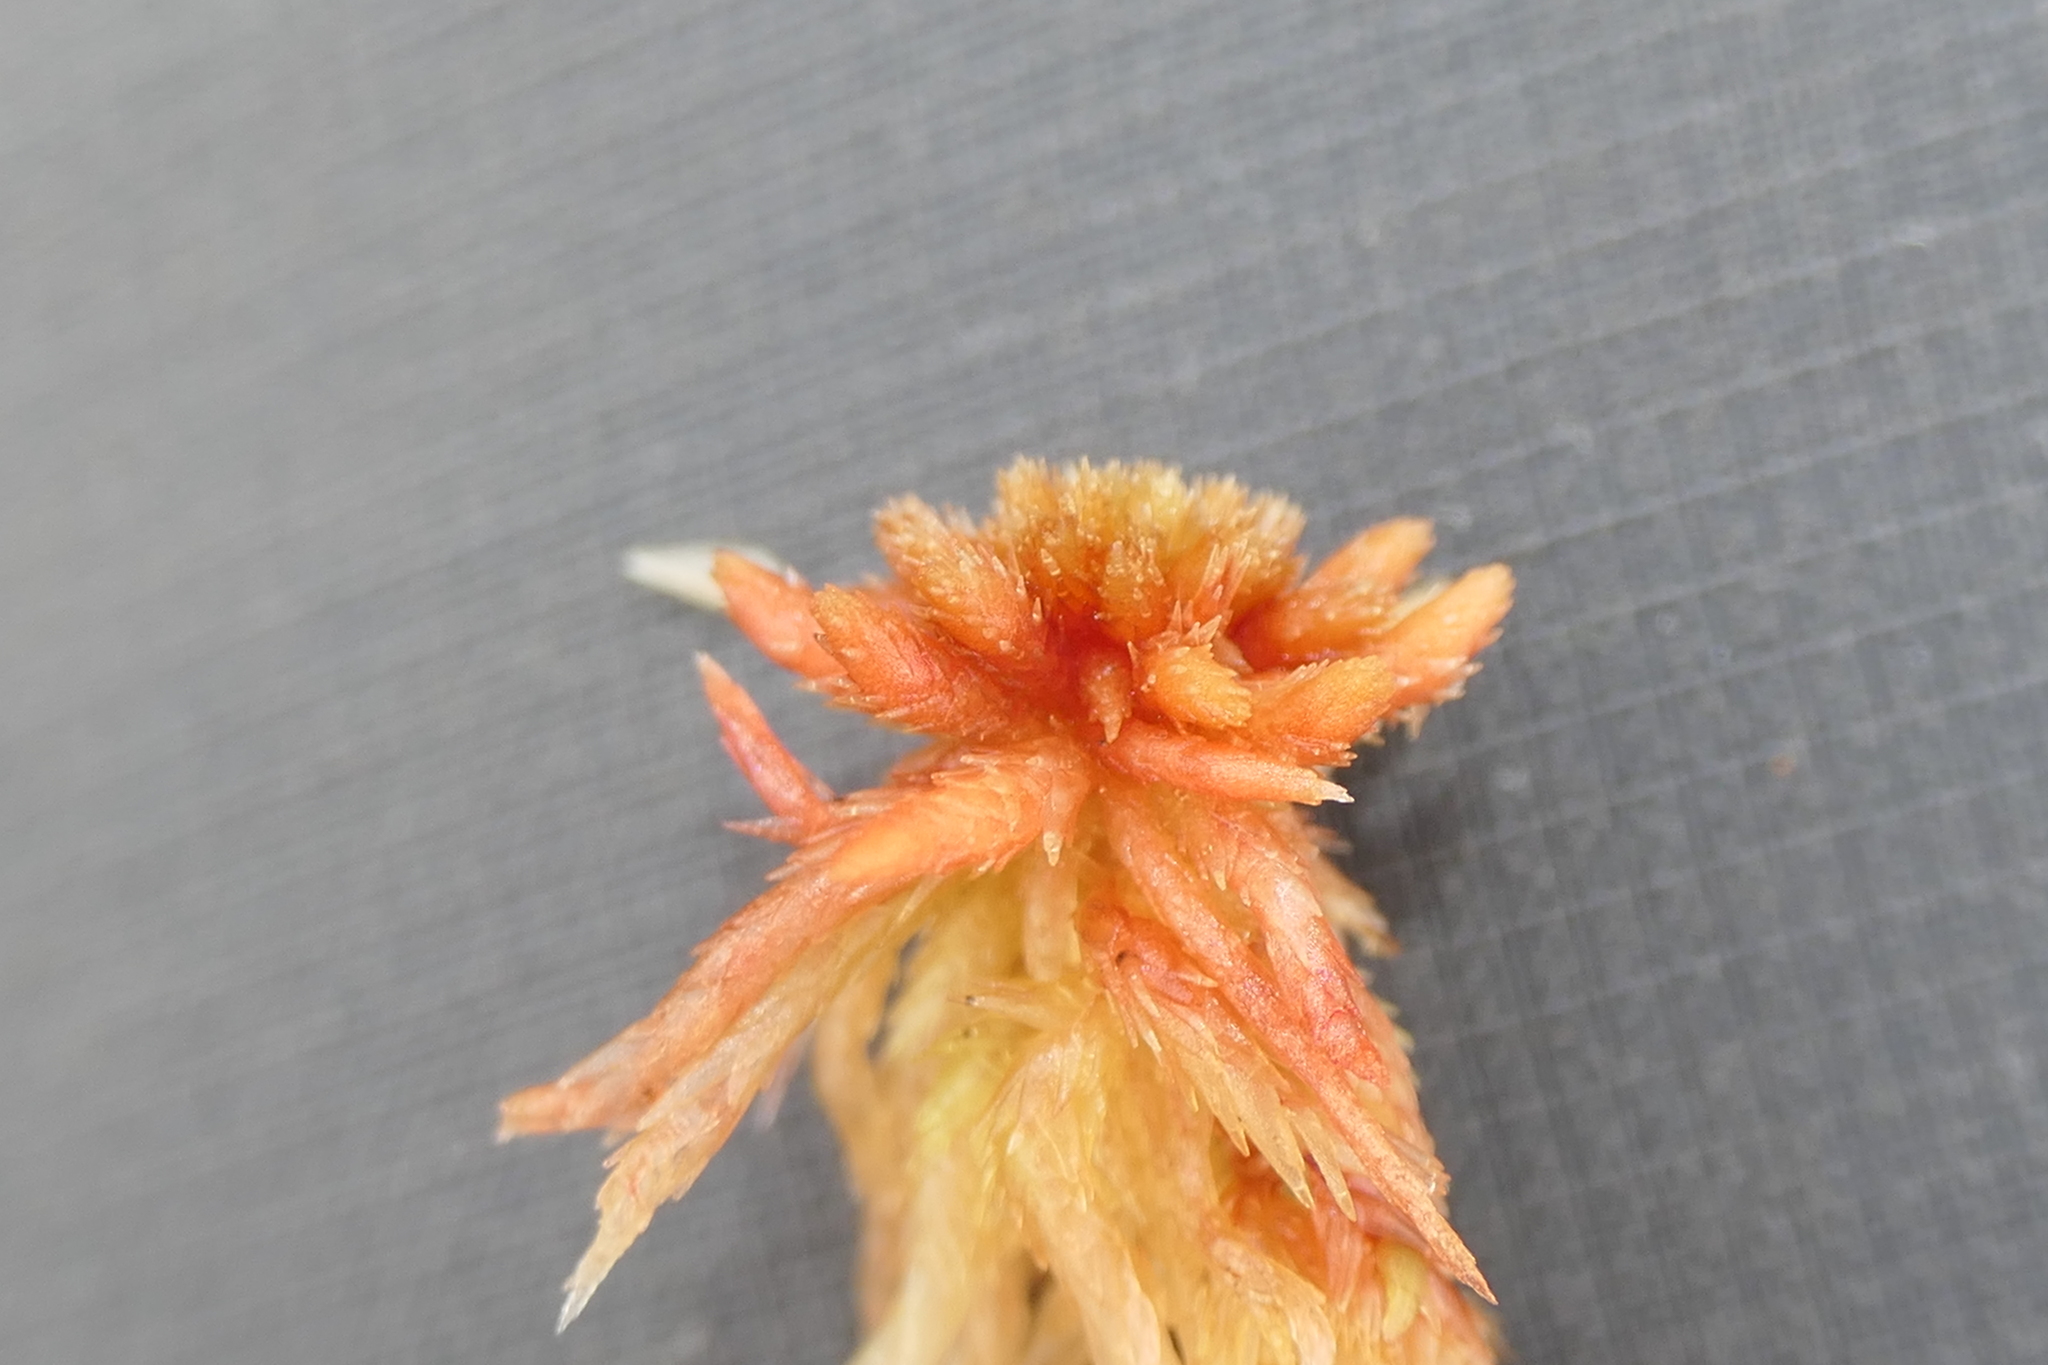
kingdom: Plantae
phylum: Bryophyta
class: Sphagnopsida
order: Sphagnales
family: Sphagnaceae
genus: Sphagnum
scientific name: Sphagnum subnitens
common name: Lustrous bog-moss
